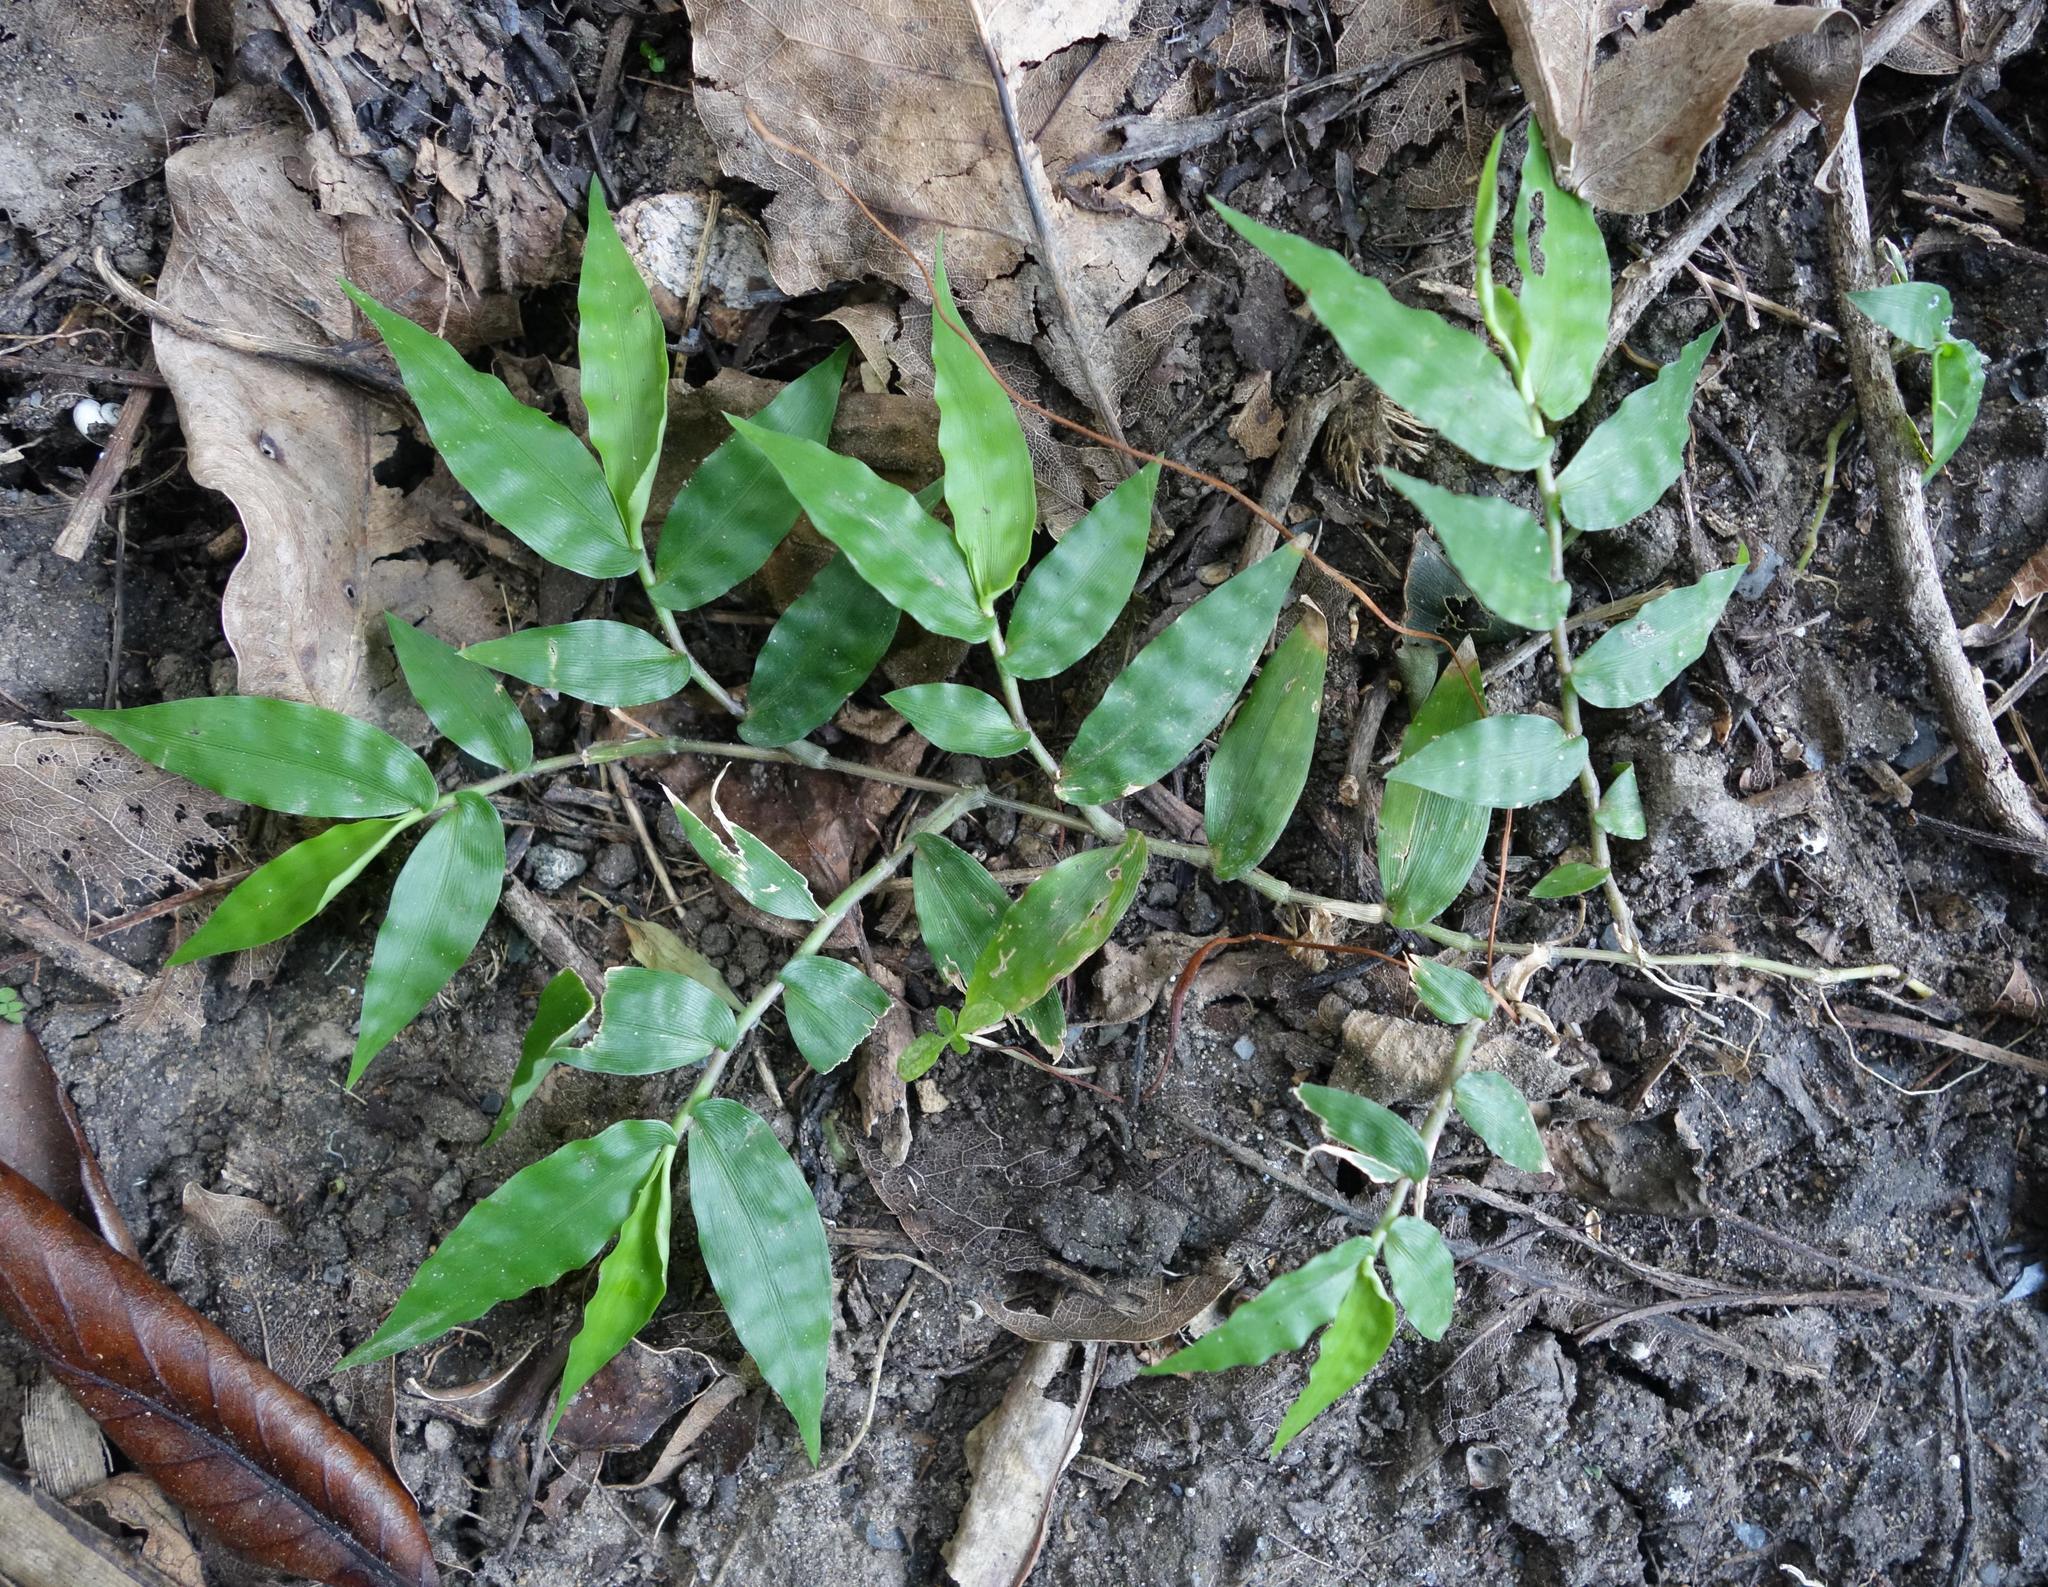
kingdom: Plantae
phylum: Tracheophyta
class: Liliopsida
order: Poales
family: Poaceae
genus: Oplismenus
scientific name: Oplismenus compositus
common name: Running mountain grass
